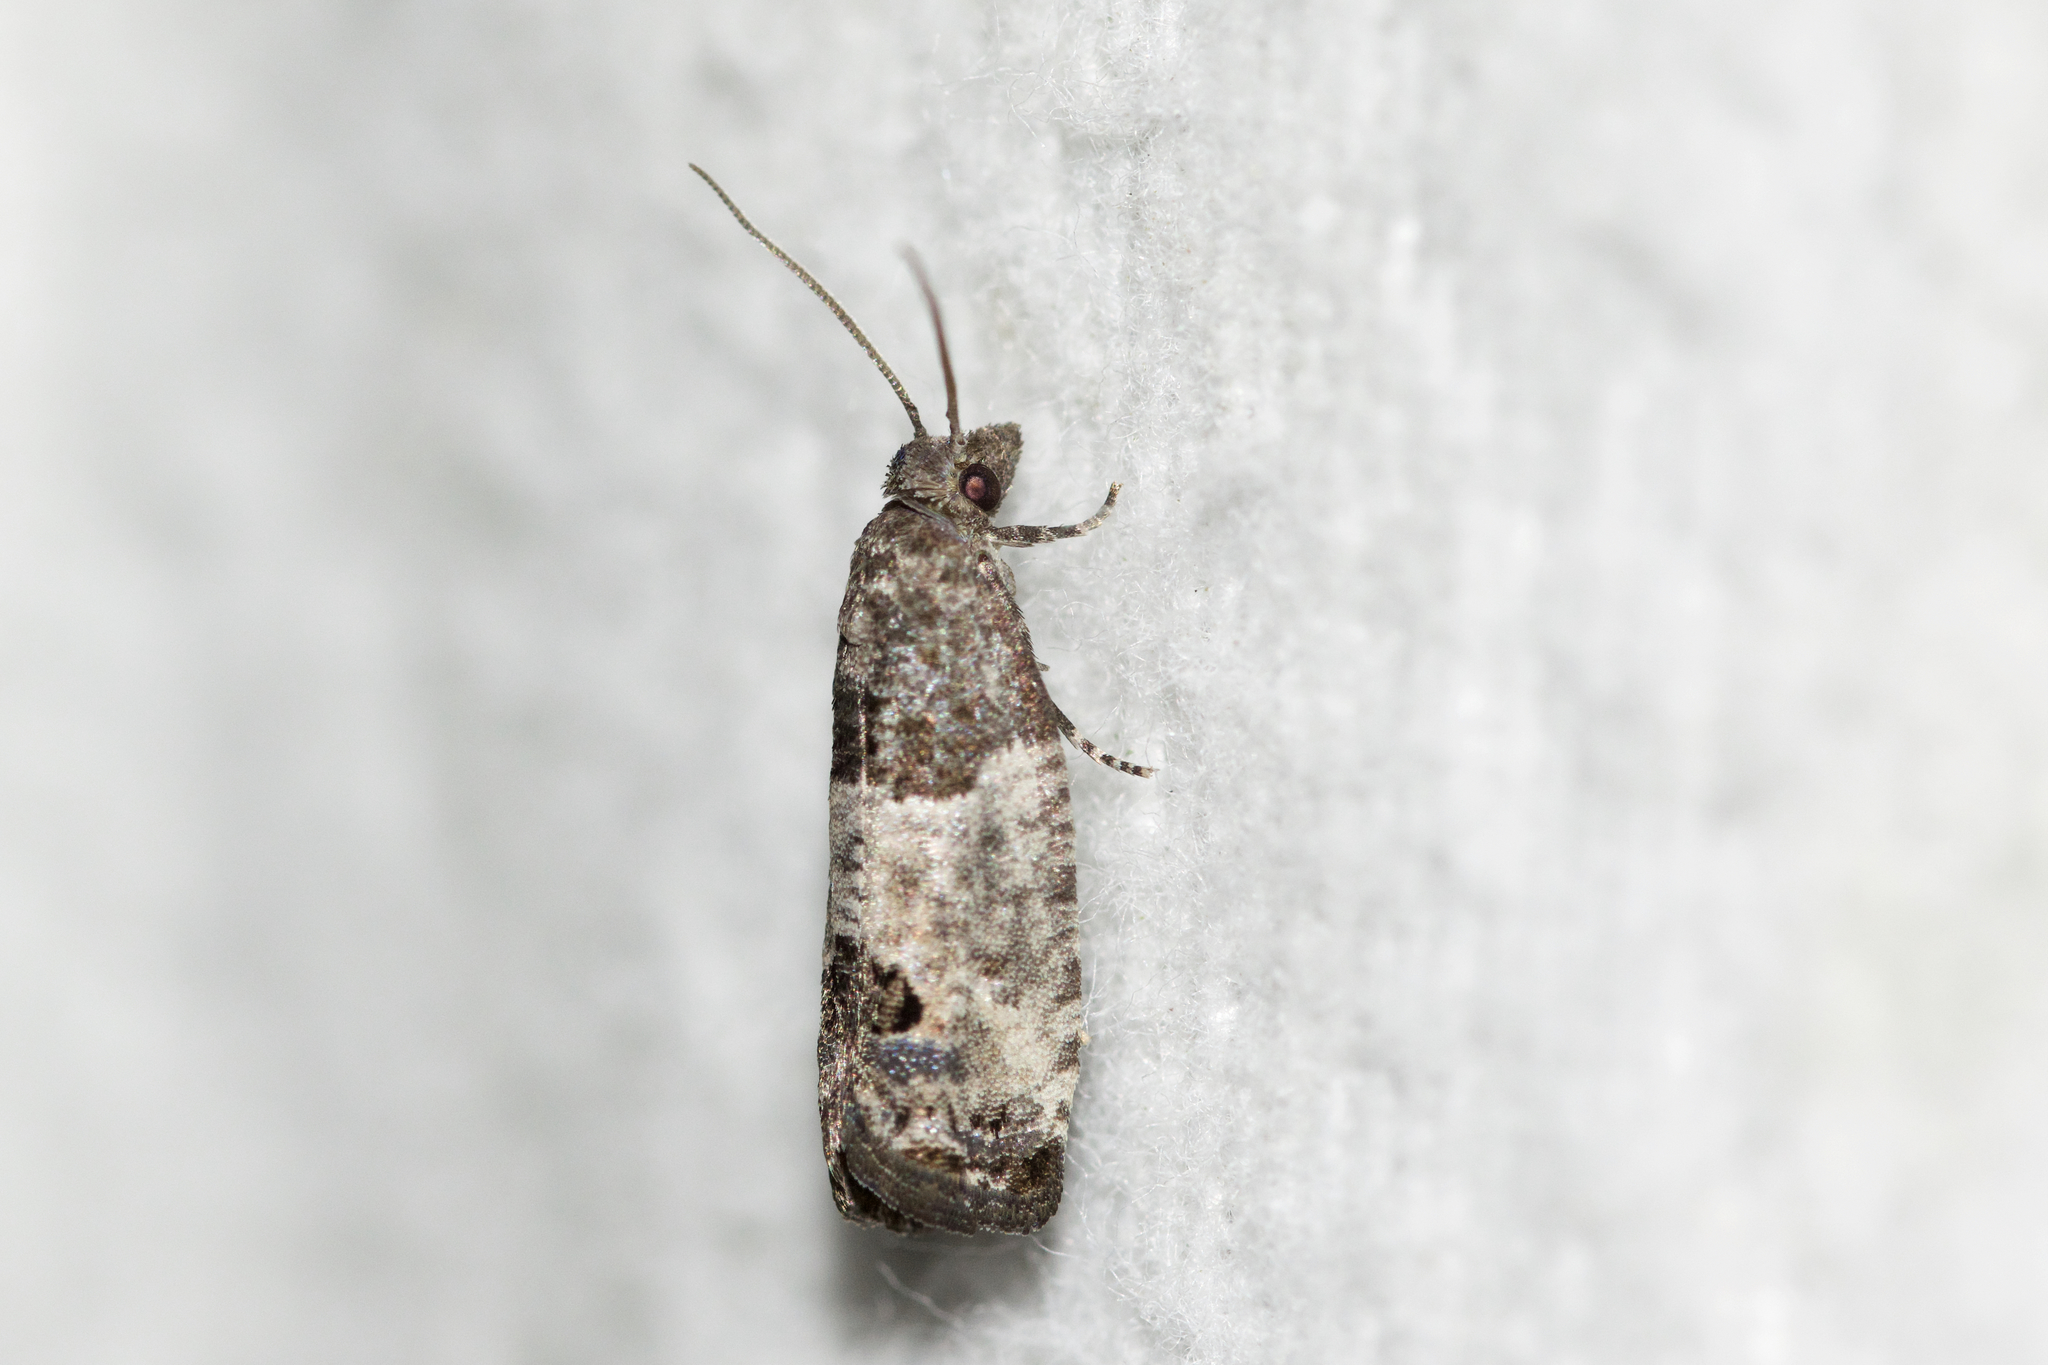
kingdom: Animalia
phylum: Arthropoda
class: Insecta
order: Lepidoptera
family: Tortricidae
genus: Spilonota
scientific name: Spilonota ocellana
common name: Bud moth
